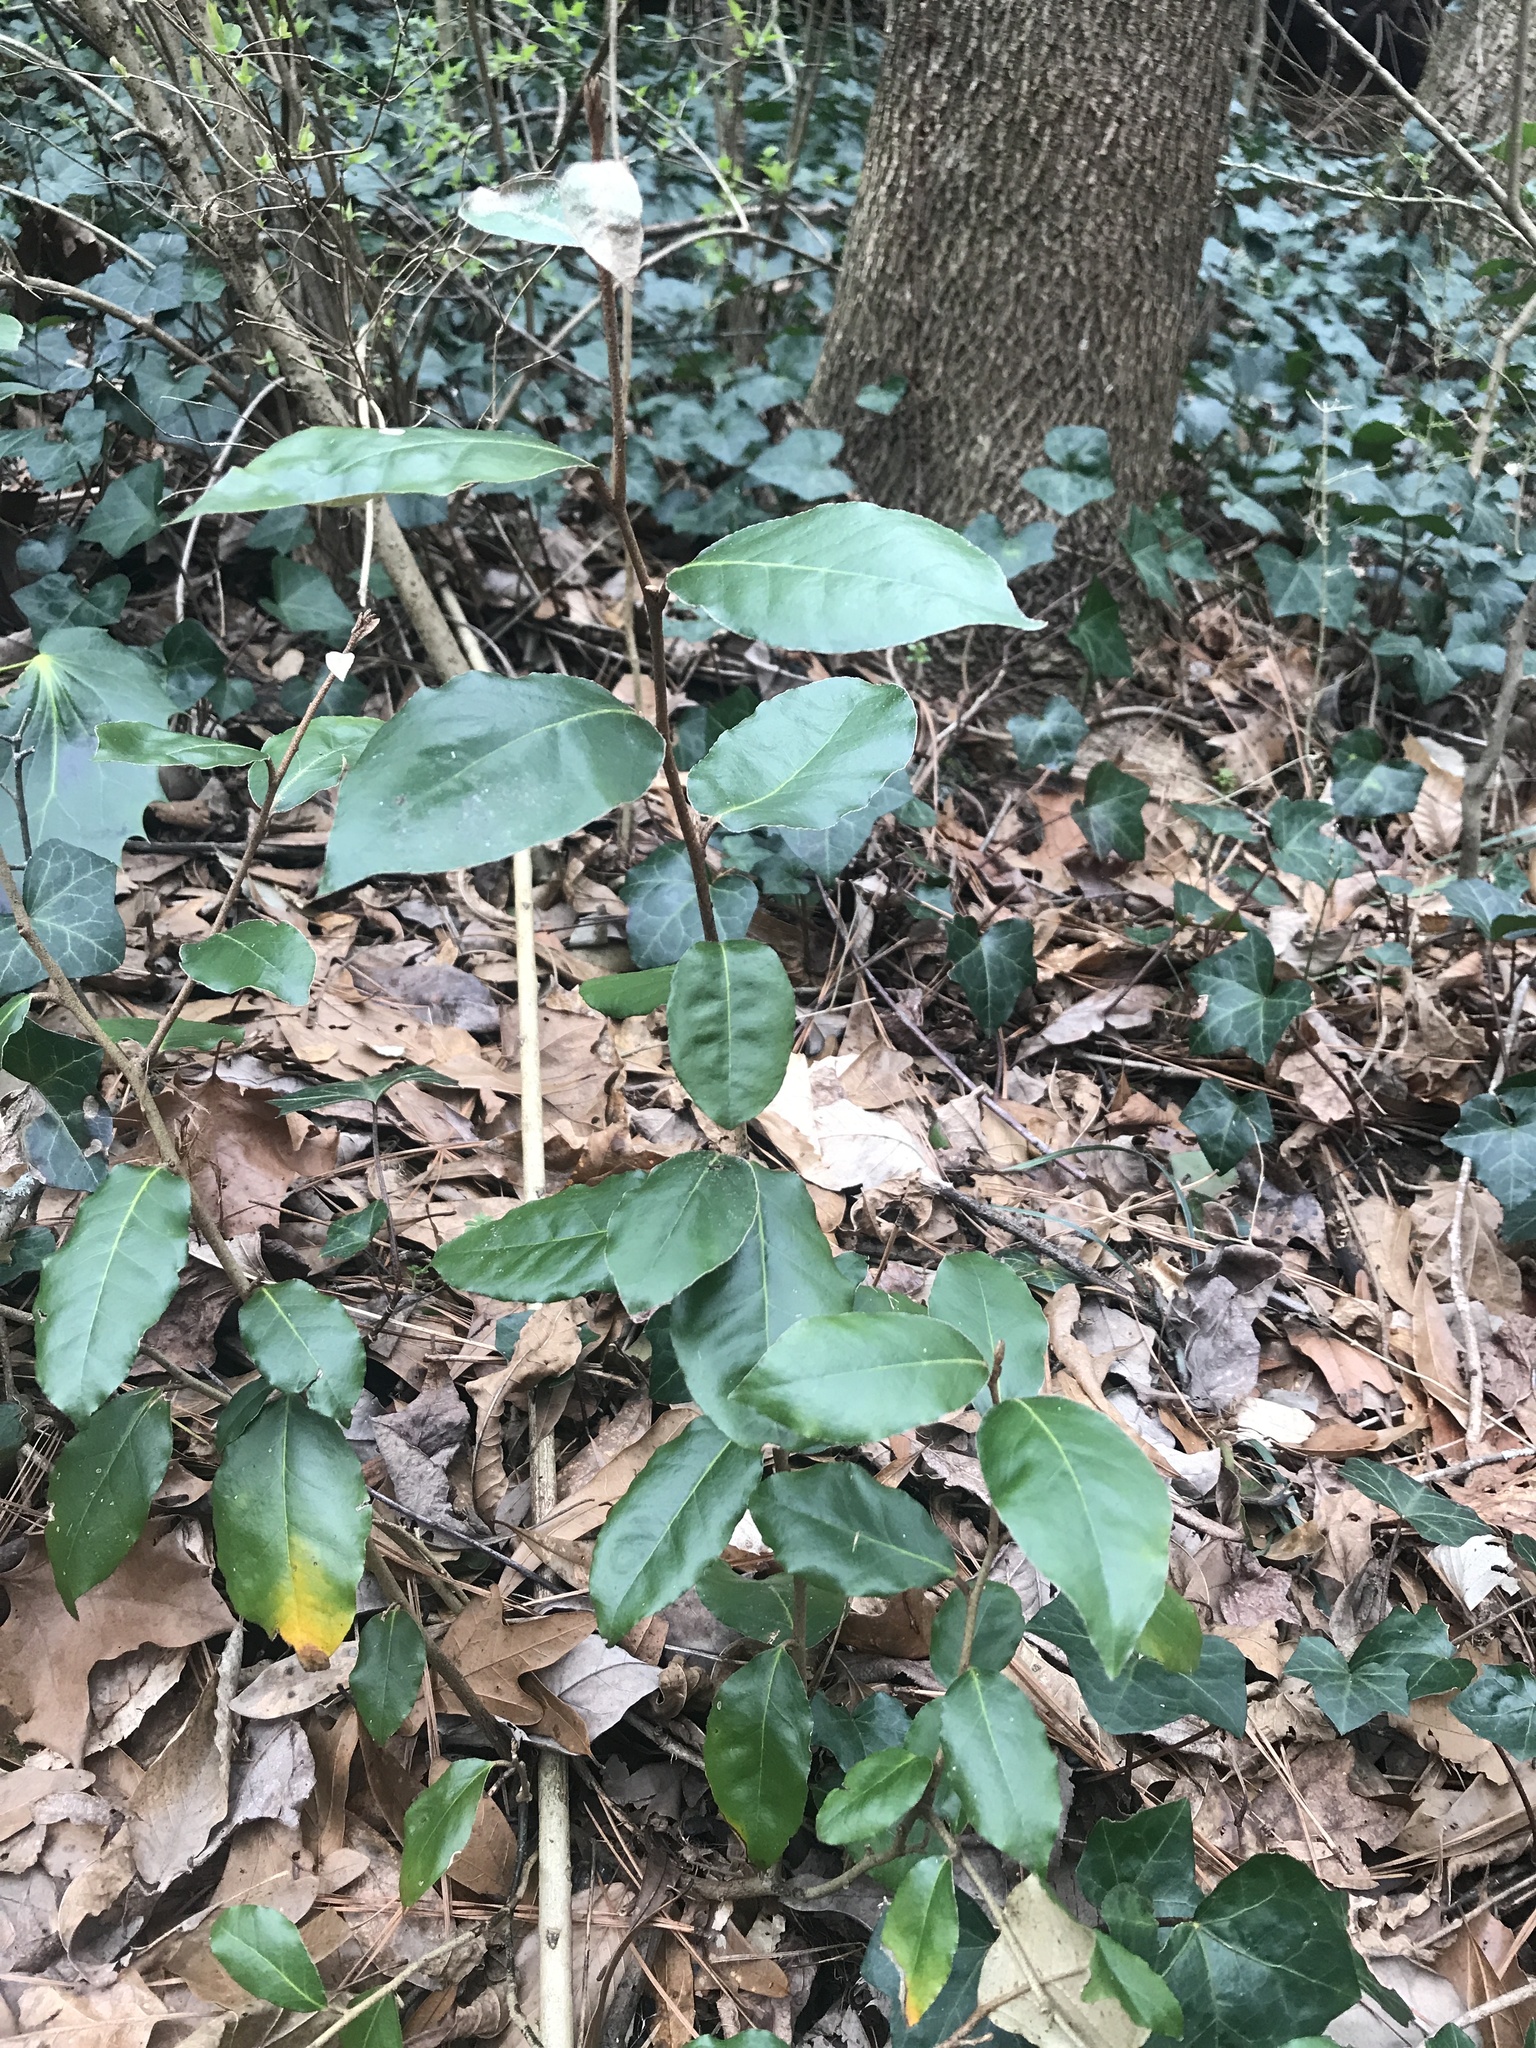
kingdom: Plantae
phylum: Tracheophyta
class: Magnoliopsida
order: Rosales
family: Elaeagnaceae
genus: Elaeagnus
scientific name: Elaeagnus pungens
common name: Spiny oleaster
